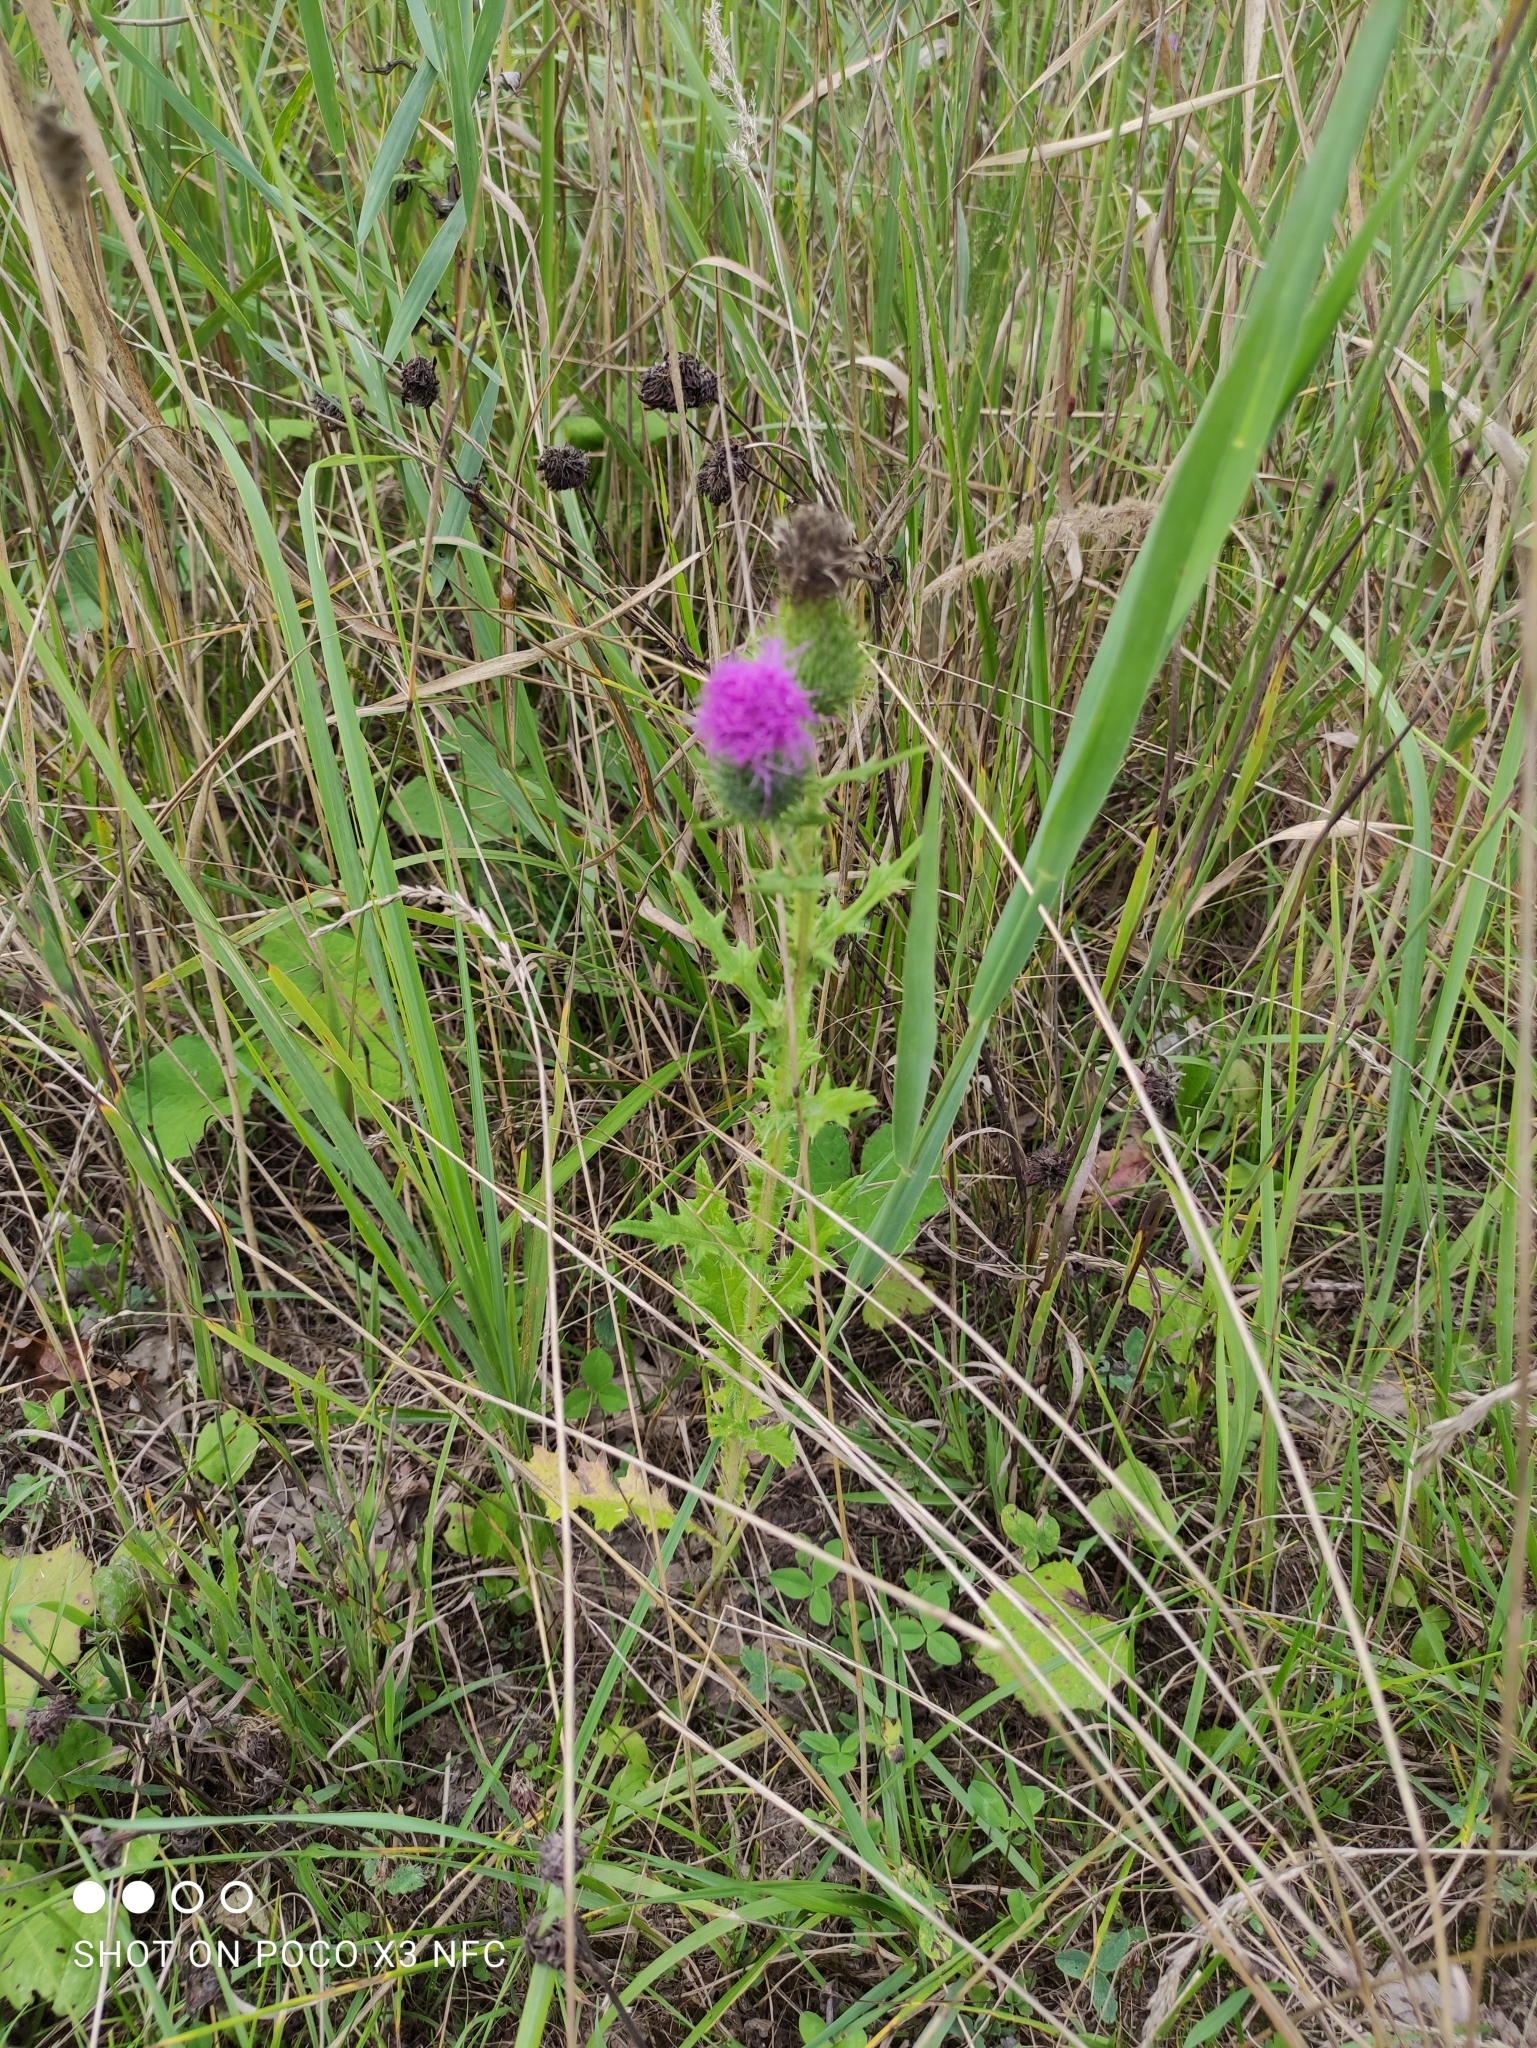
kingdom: Plantae
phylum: Tracheophyta
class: Magnoliopsida
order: Asterales
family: Asteraceae
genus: Cirsium
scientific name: Cirsium vulgare
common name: Bull thistle
